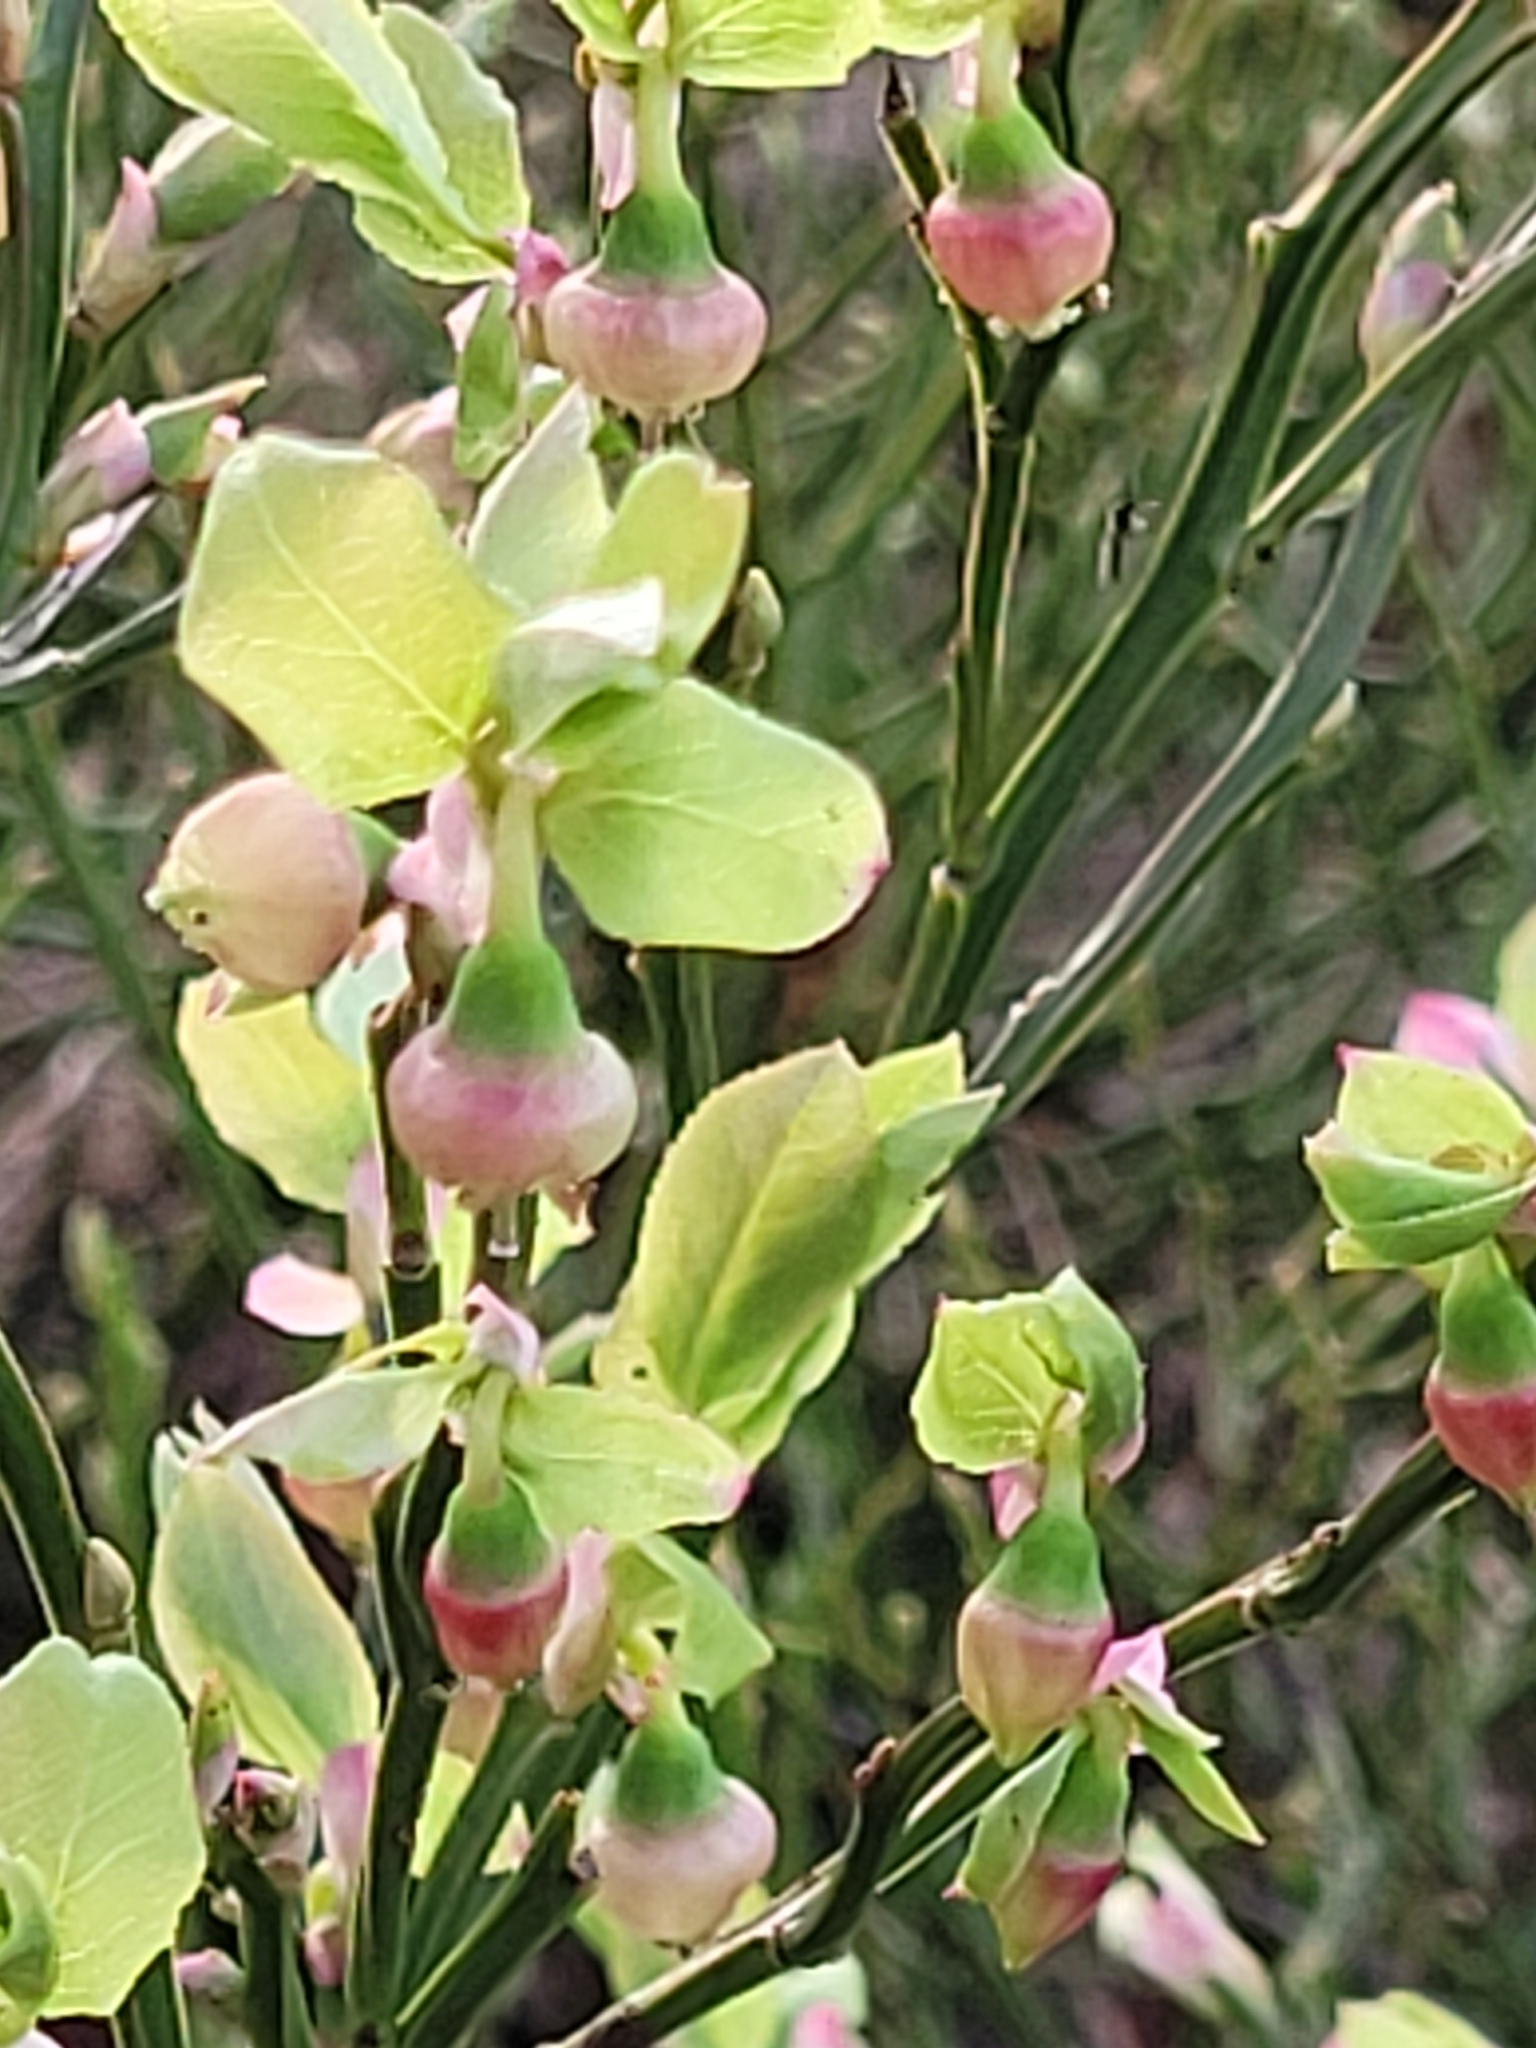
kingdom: Plantae
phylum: Tracheophyta
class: Magnoliopsida
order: Ericales
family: Ericaceae
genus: Vaccinium
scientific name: Vaccinium myrtillus
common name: Bilberry
